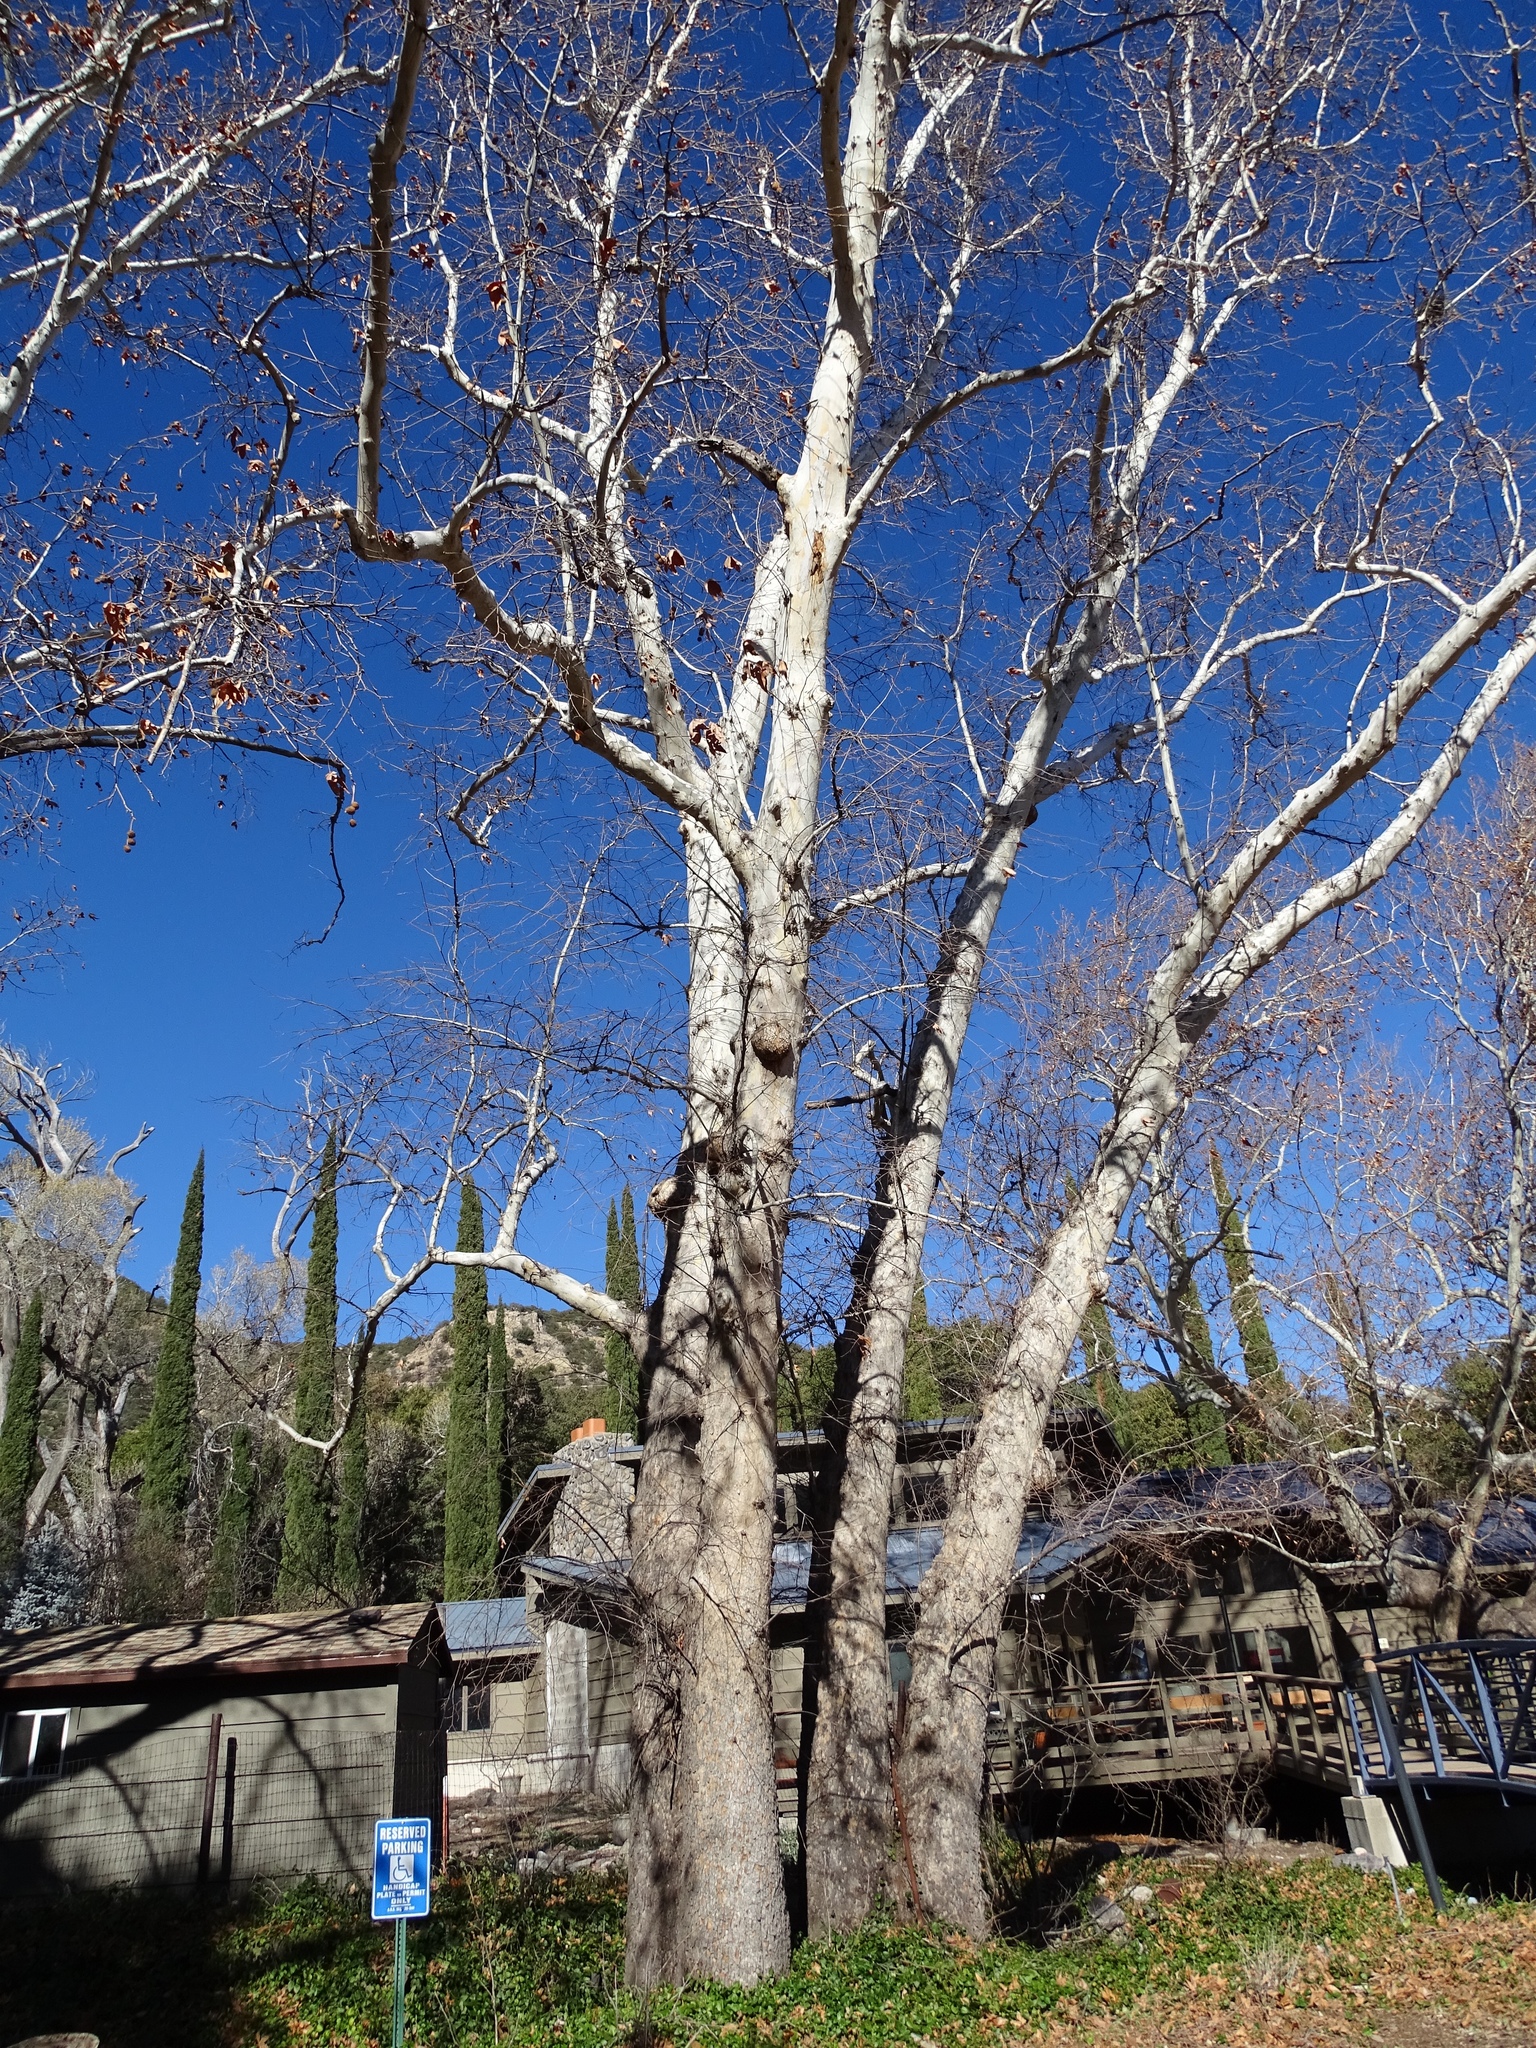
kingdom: Plantae
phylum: Tracheophyta
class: Magnoliopsida
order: Proteales
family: Platanaceae
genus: Platanus
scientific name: Platanus wrightii
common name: Arizona sycamore
